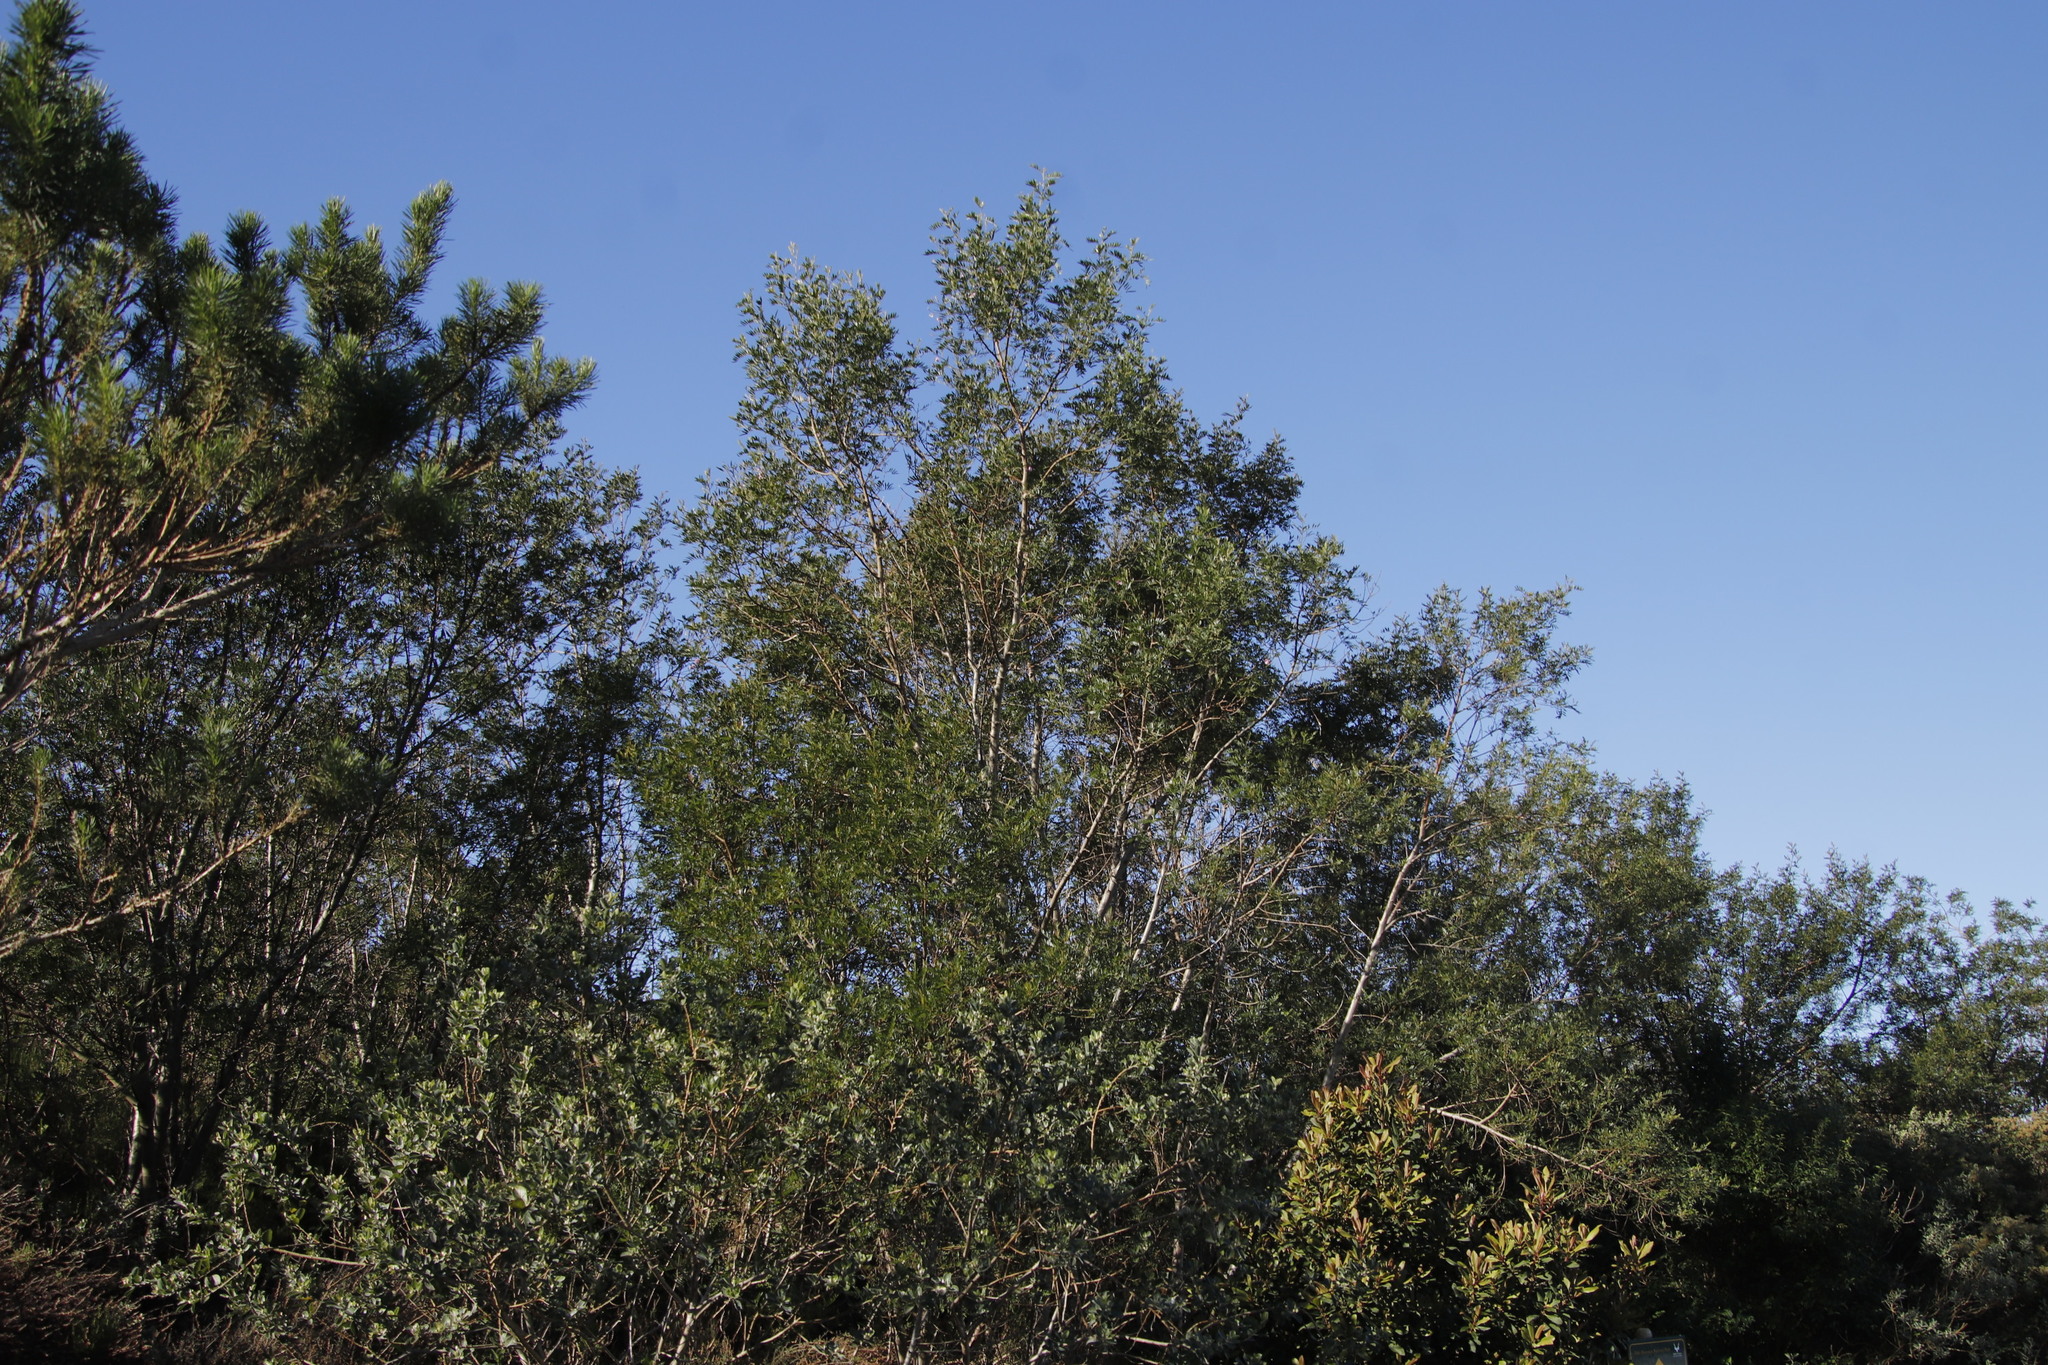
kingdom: Plantae
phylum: Tracheophyta
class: Magnoliopsida
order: Fabales
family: Fabaceae
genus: Virgilia
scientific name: Virgilia oroboides
